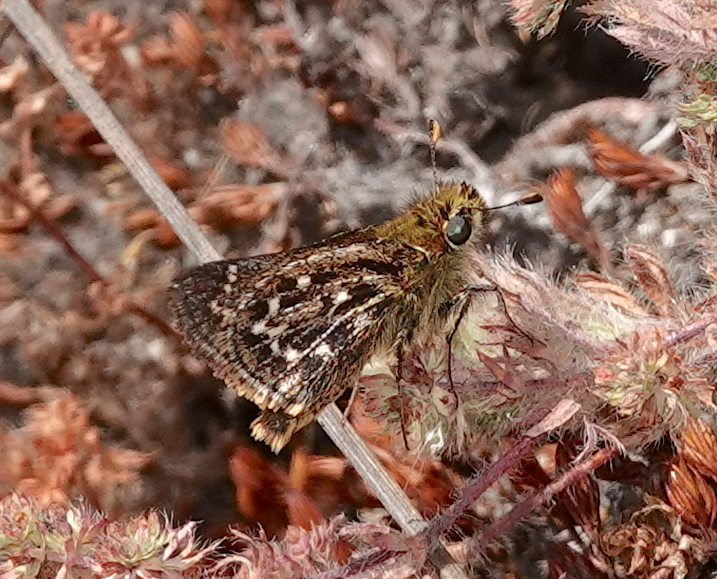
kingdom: Animalia
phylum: Arthropoda
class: Insecta
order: Lepidoptera
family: Hesperiidae
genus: Hylephila
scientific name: Hylephila
